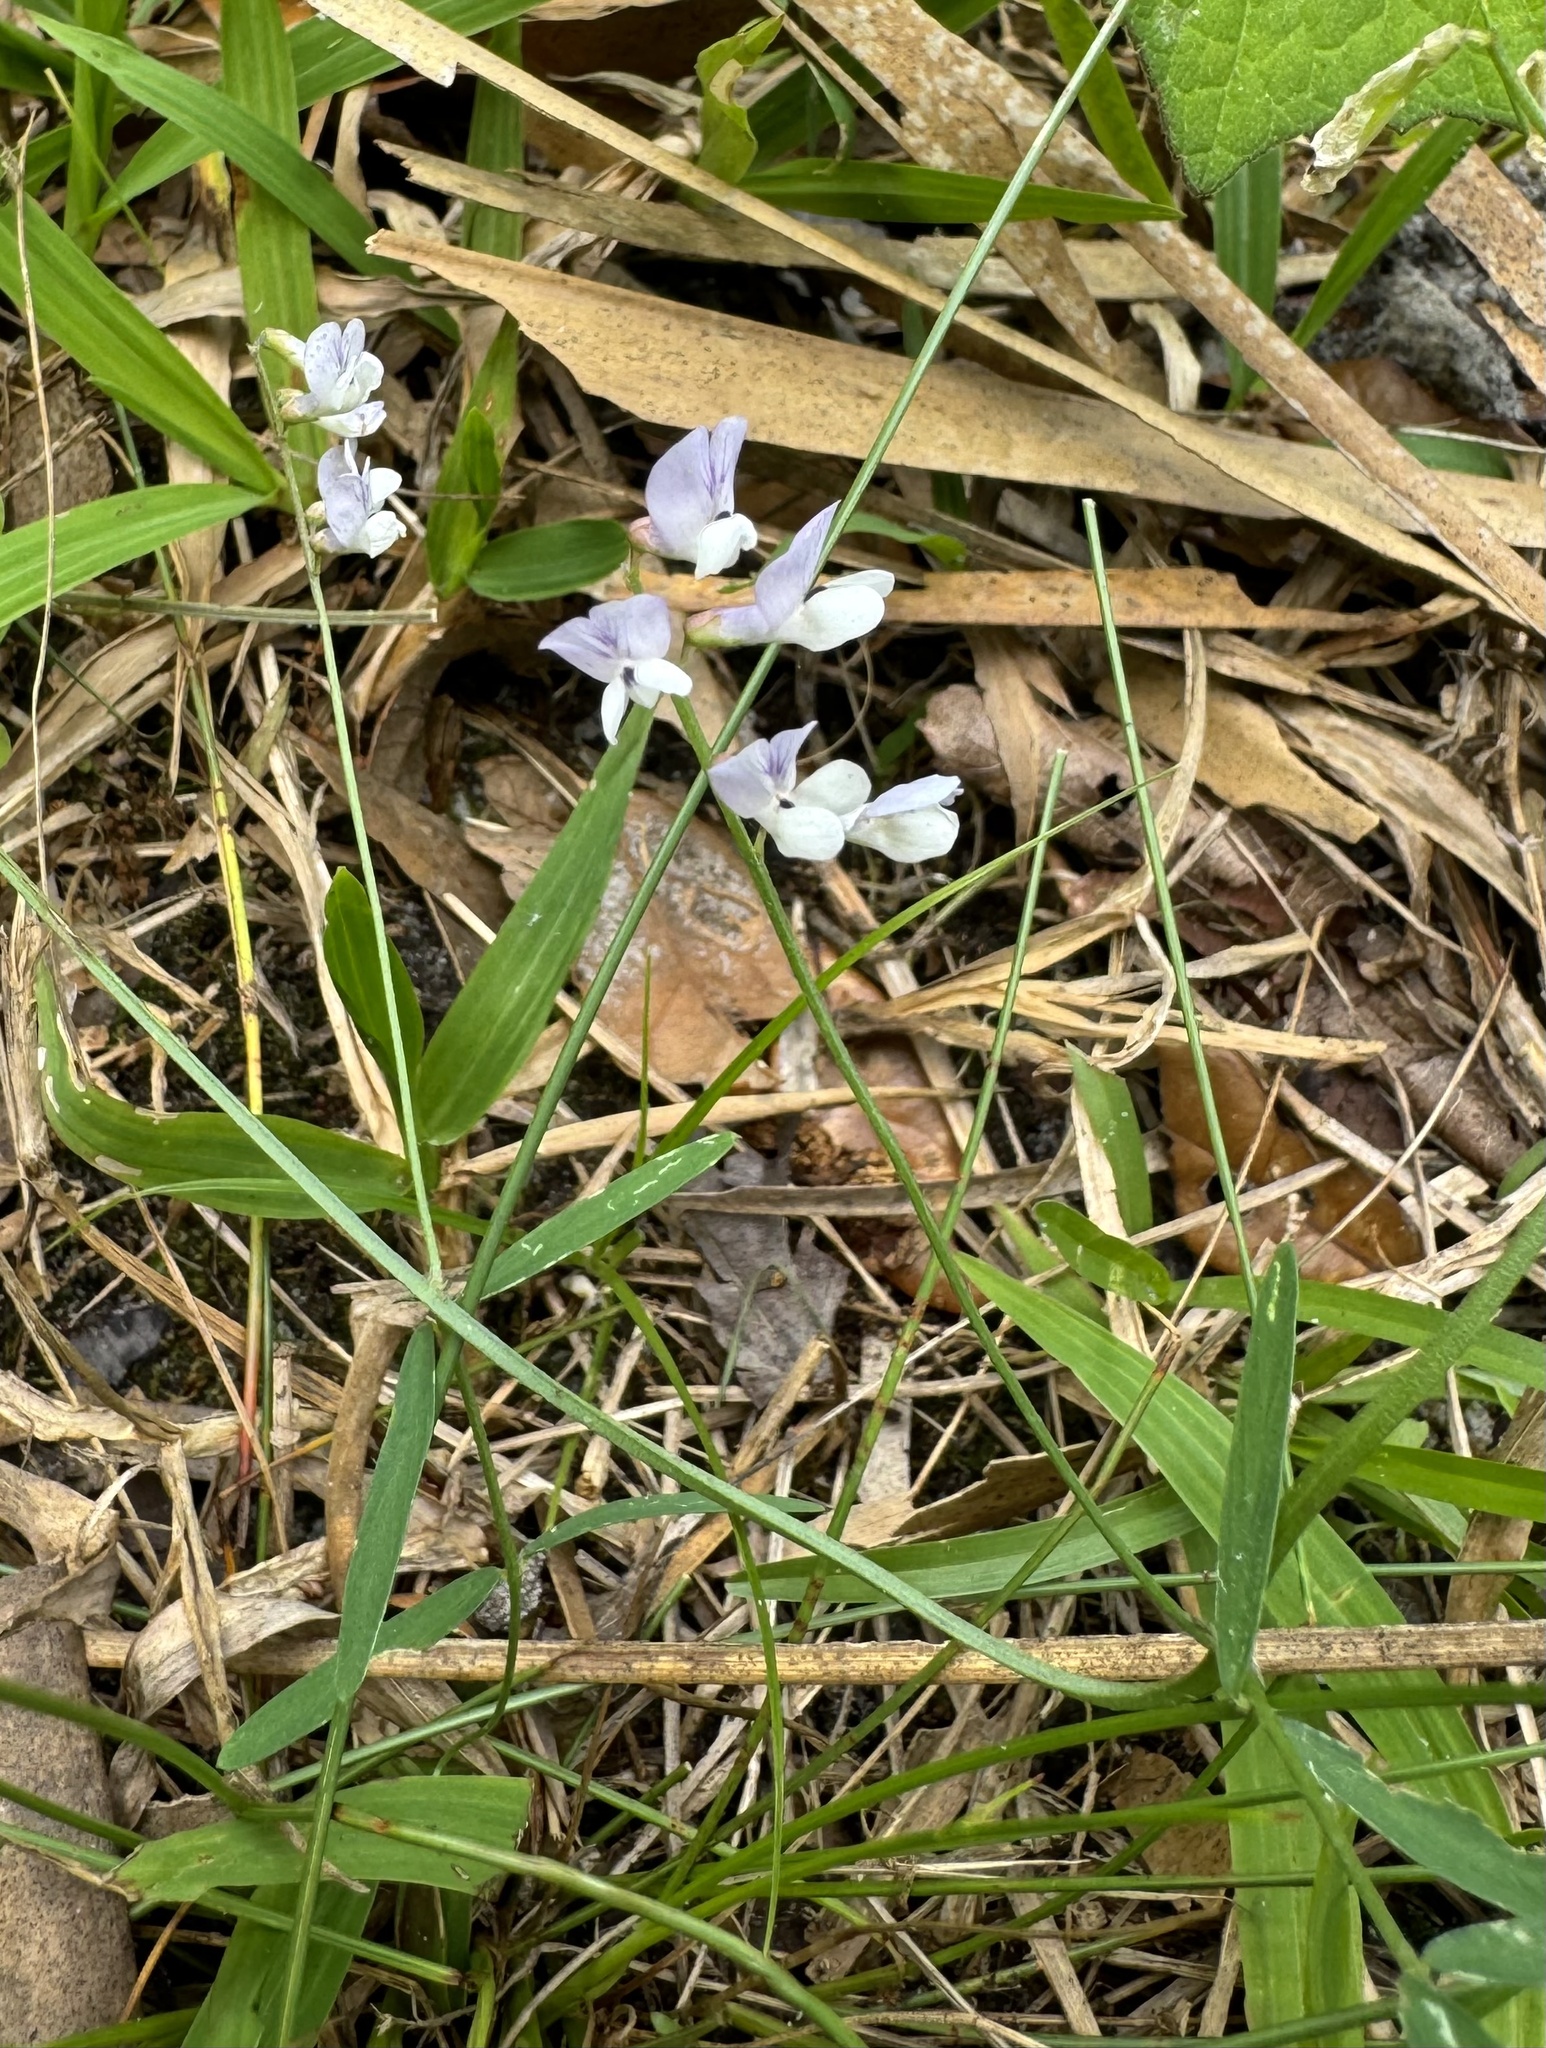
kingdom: Plantae
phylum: Tracheophyta
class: Magnoliopsida
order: Fabales
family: Fabaceae
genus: Vicia
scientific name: Vicia acutifolia
